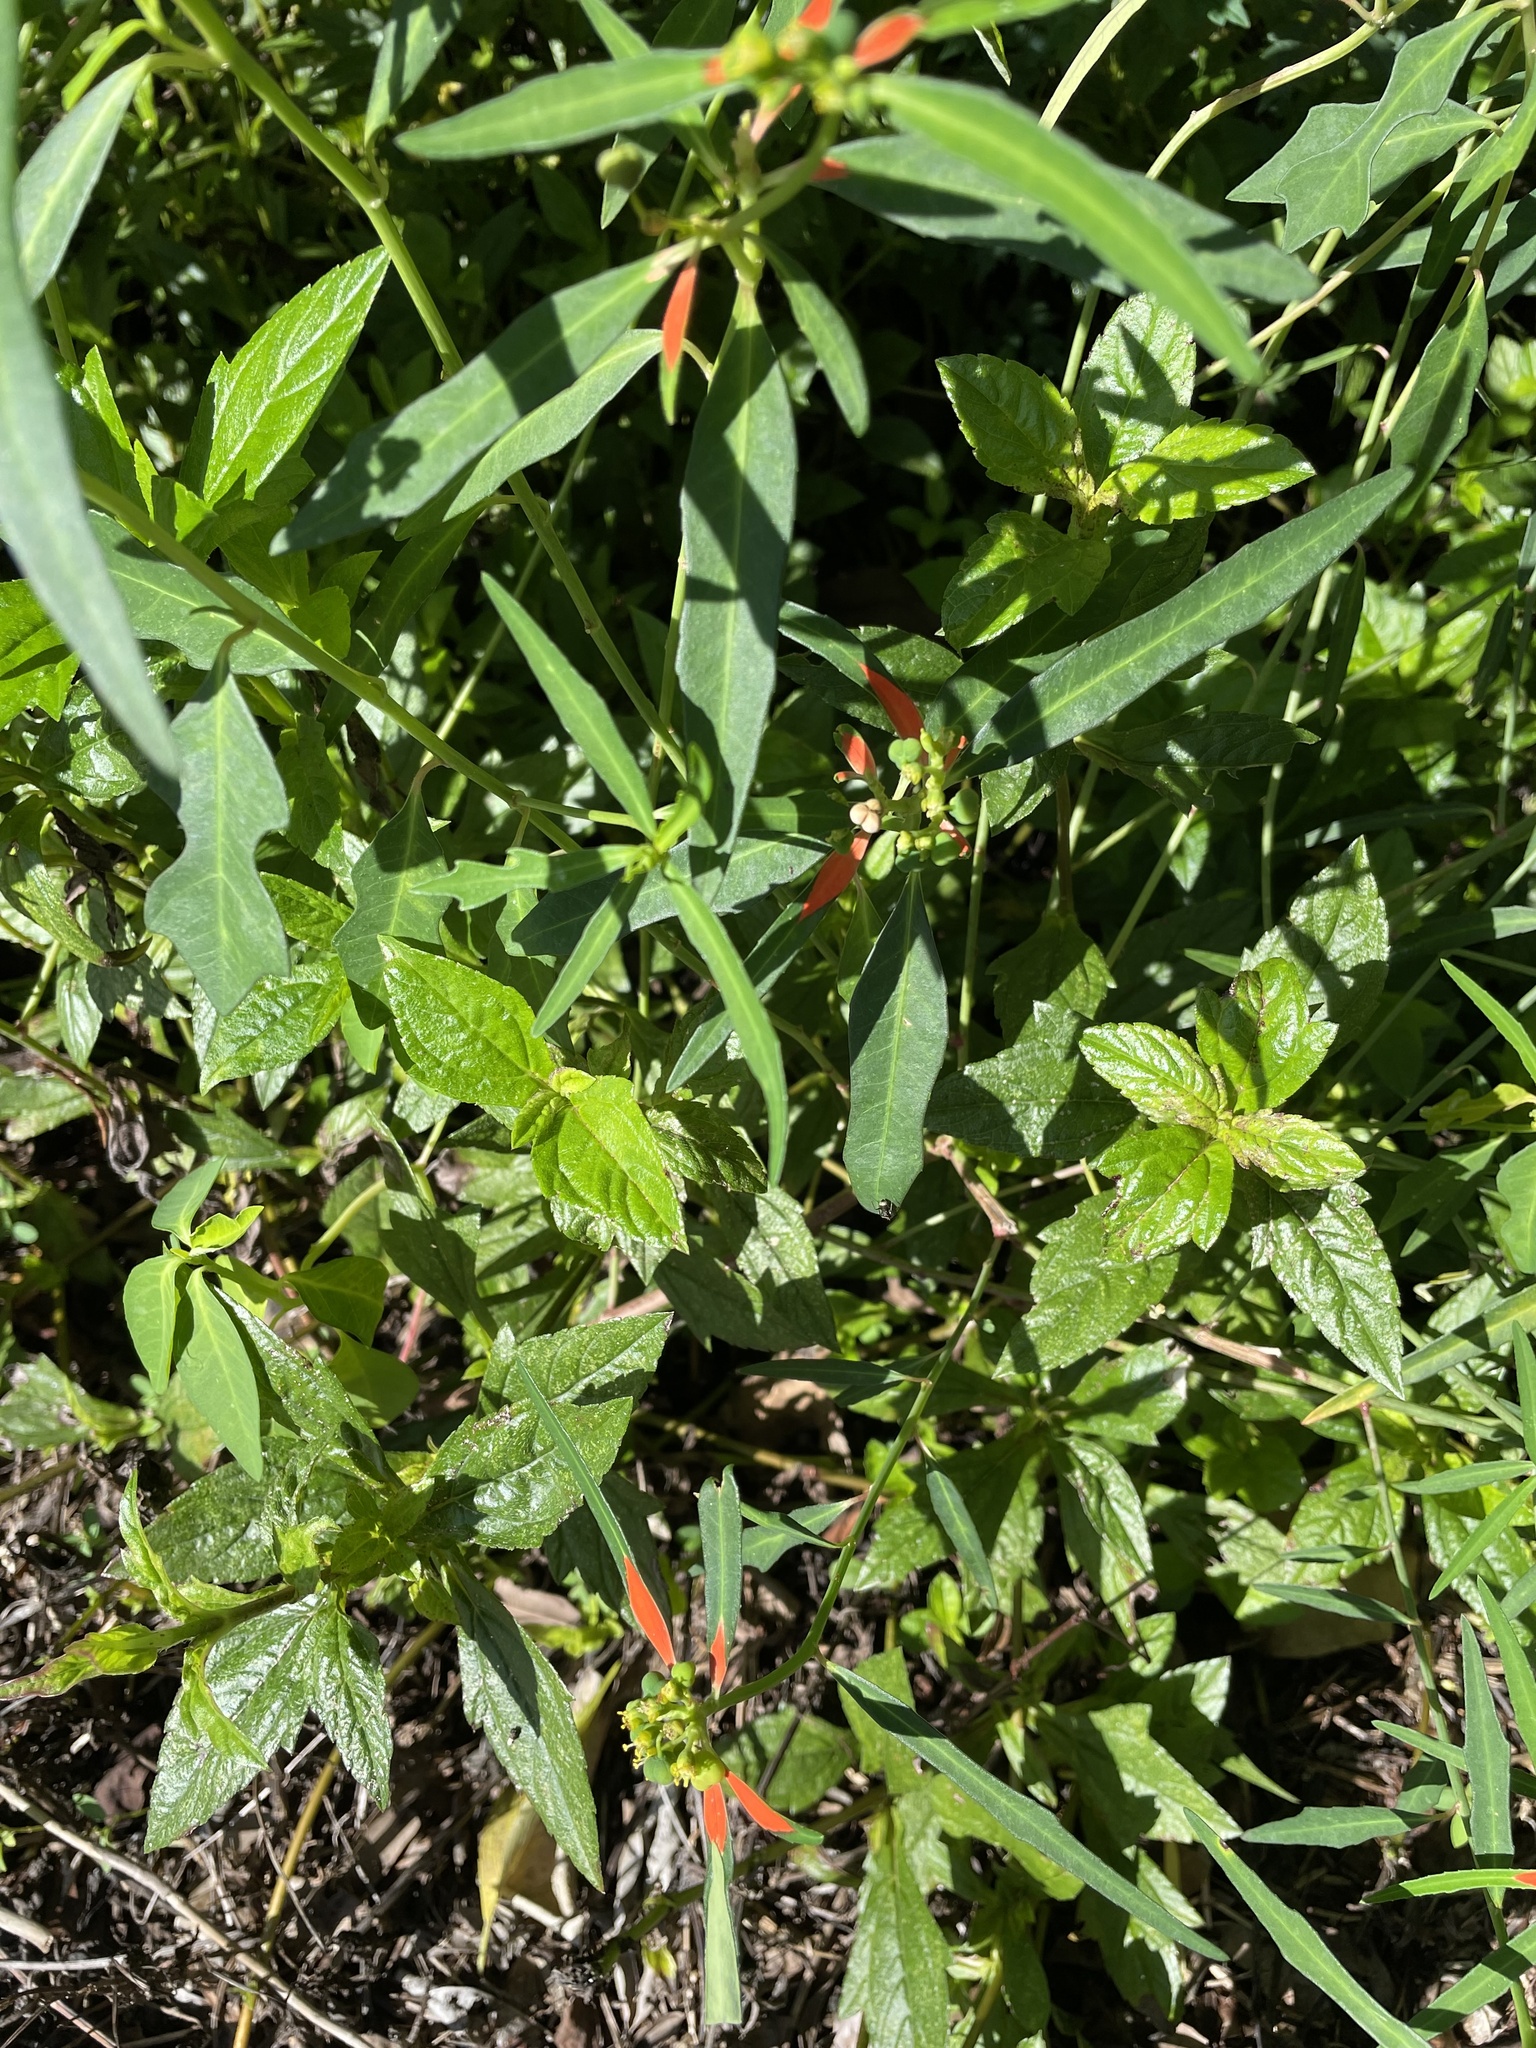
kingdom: Plantae
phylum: Tracheophyta
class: Magnoliopsida
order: Malpighiales
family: Euphorbiaceae
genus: Euphorbia
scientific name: Euphorbia heterophylla
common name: Mexican fireplant
